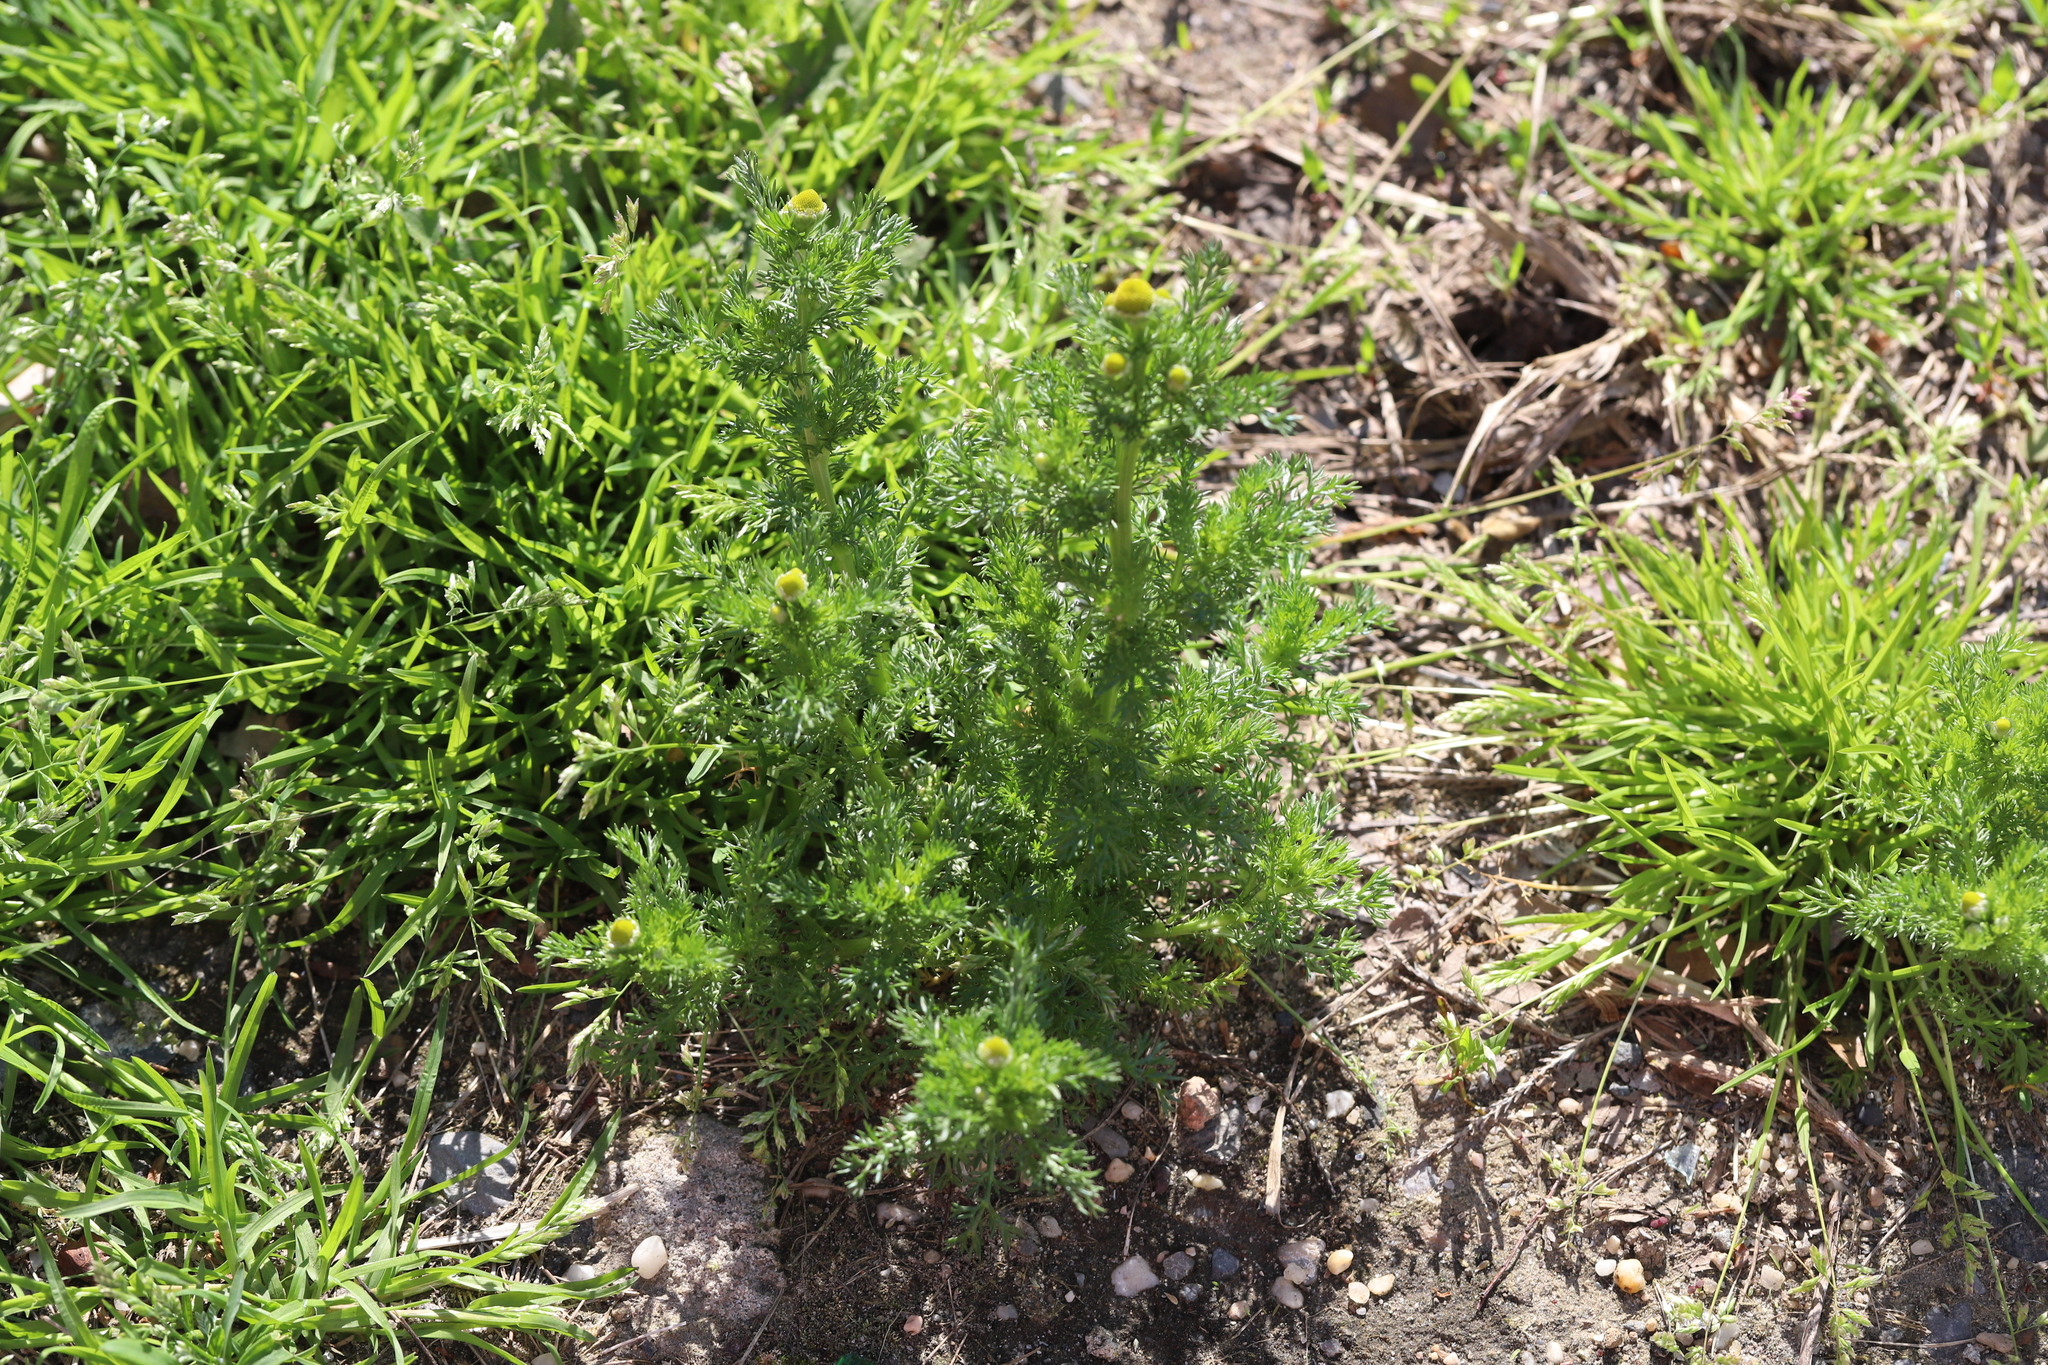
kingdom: Plantae
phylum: Tracheophyta
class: Magnoliopsida
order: Asterales
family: Asteraceae
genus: Matricaria
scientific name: Matricaria discoidea
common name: Disc mayweed
